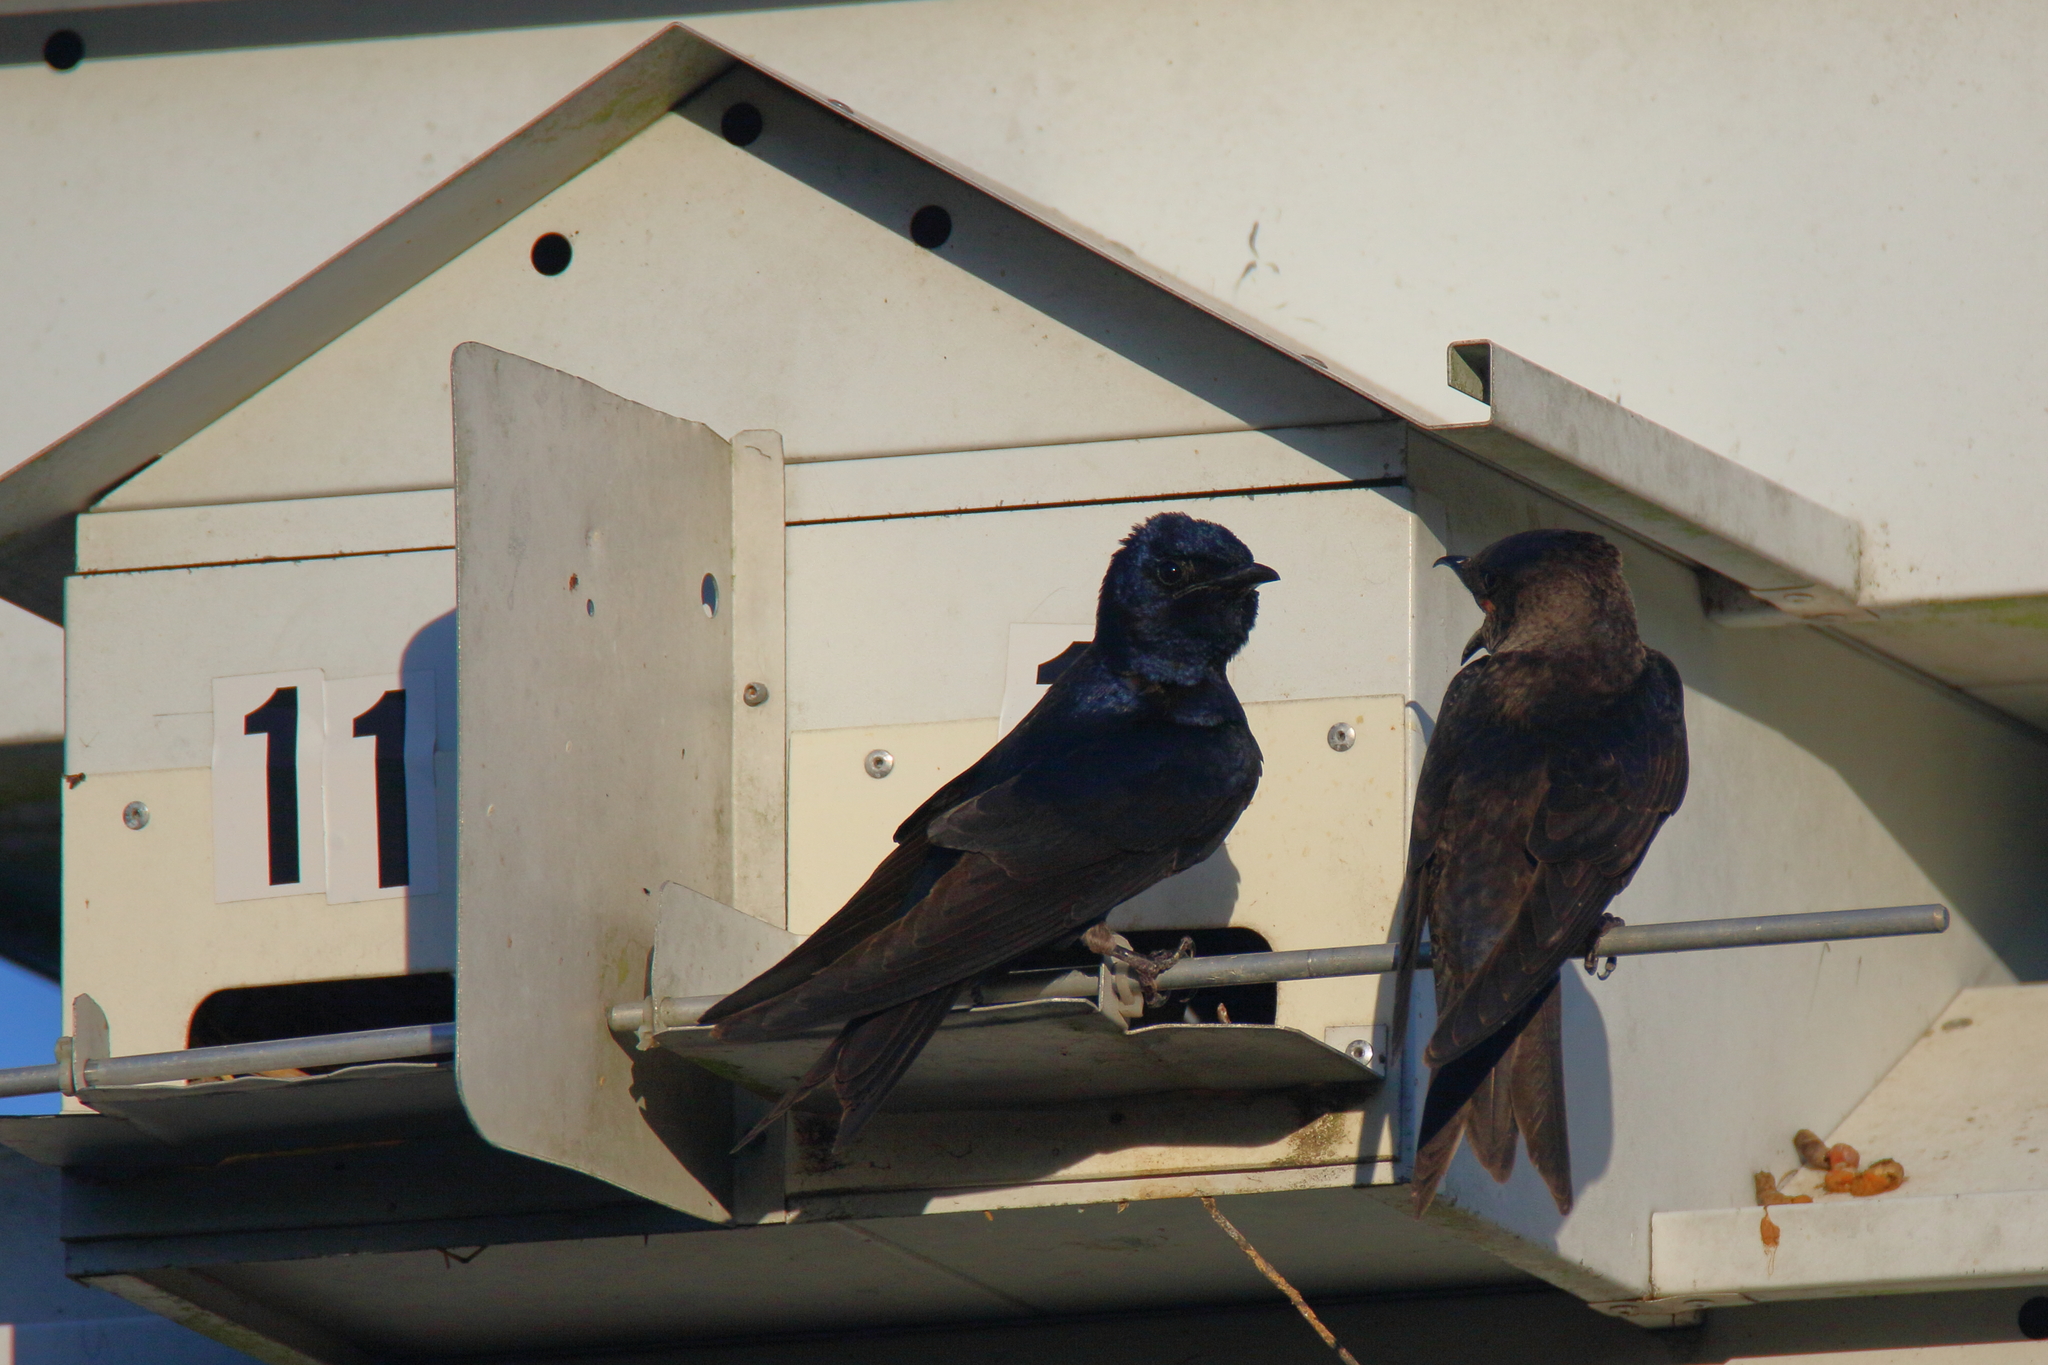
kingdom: Animalia
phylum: Chordata
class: Aves
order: Passeriformes
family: Hirundinidae
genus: Progne
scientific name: Progne subis
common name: Purple martin
